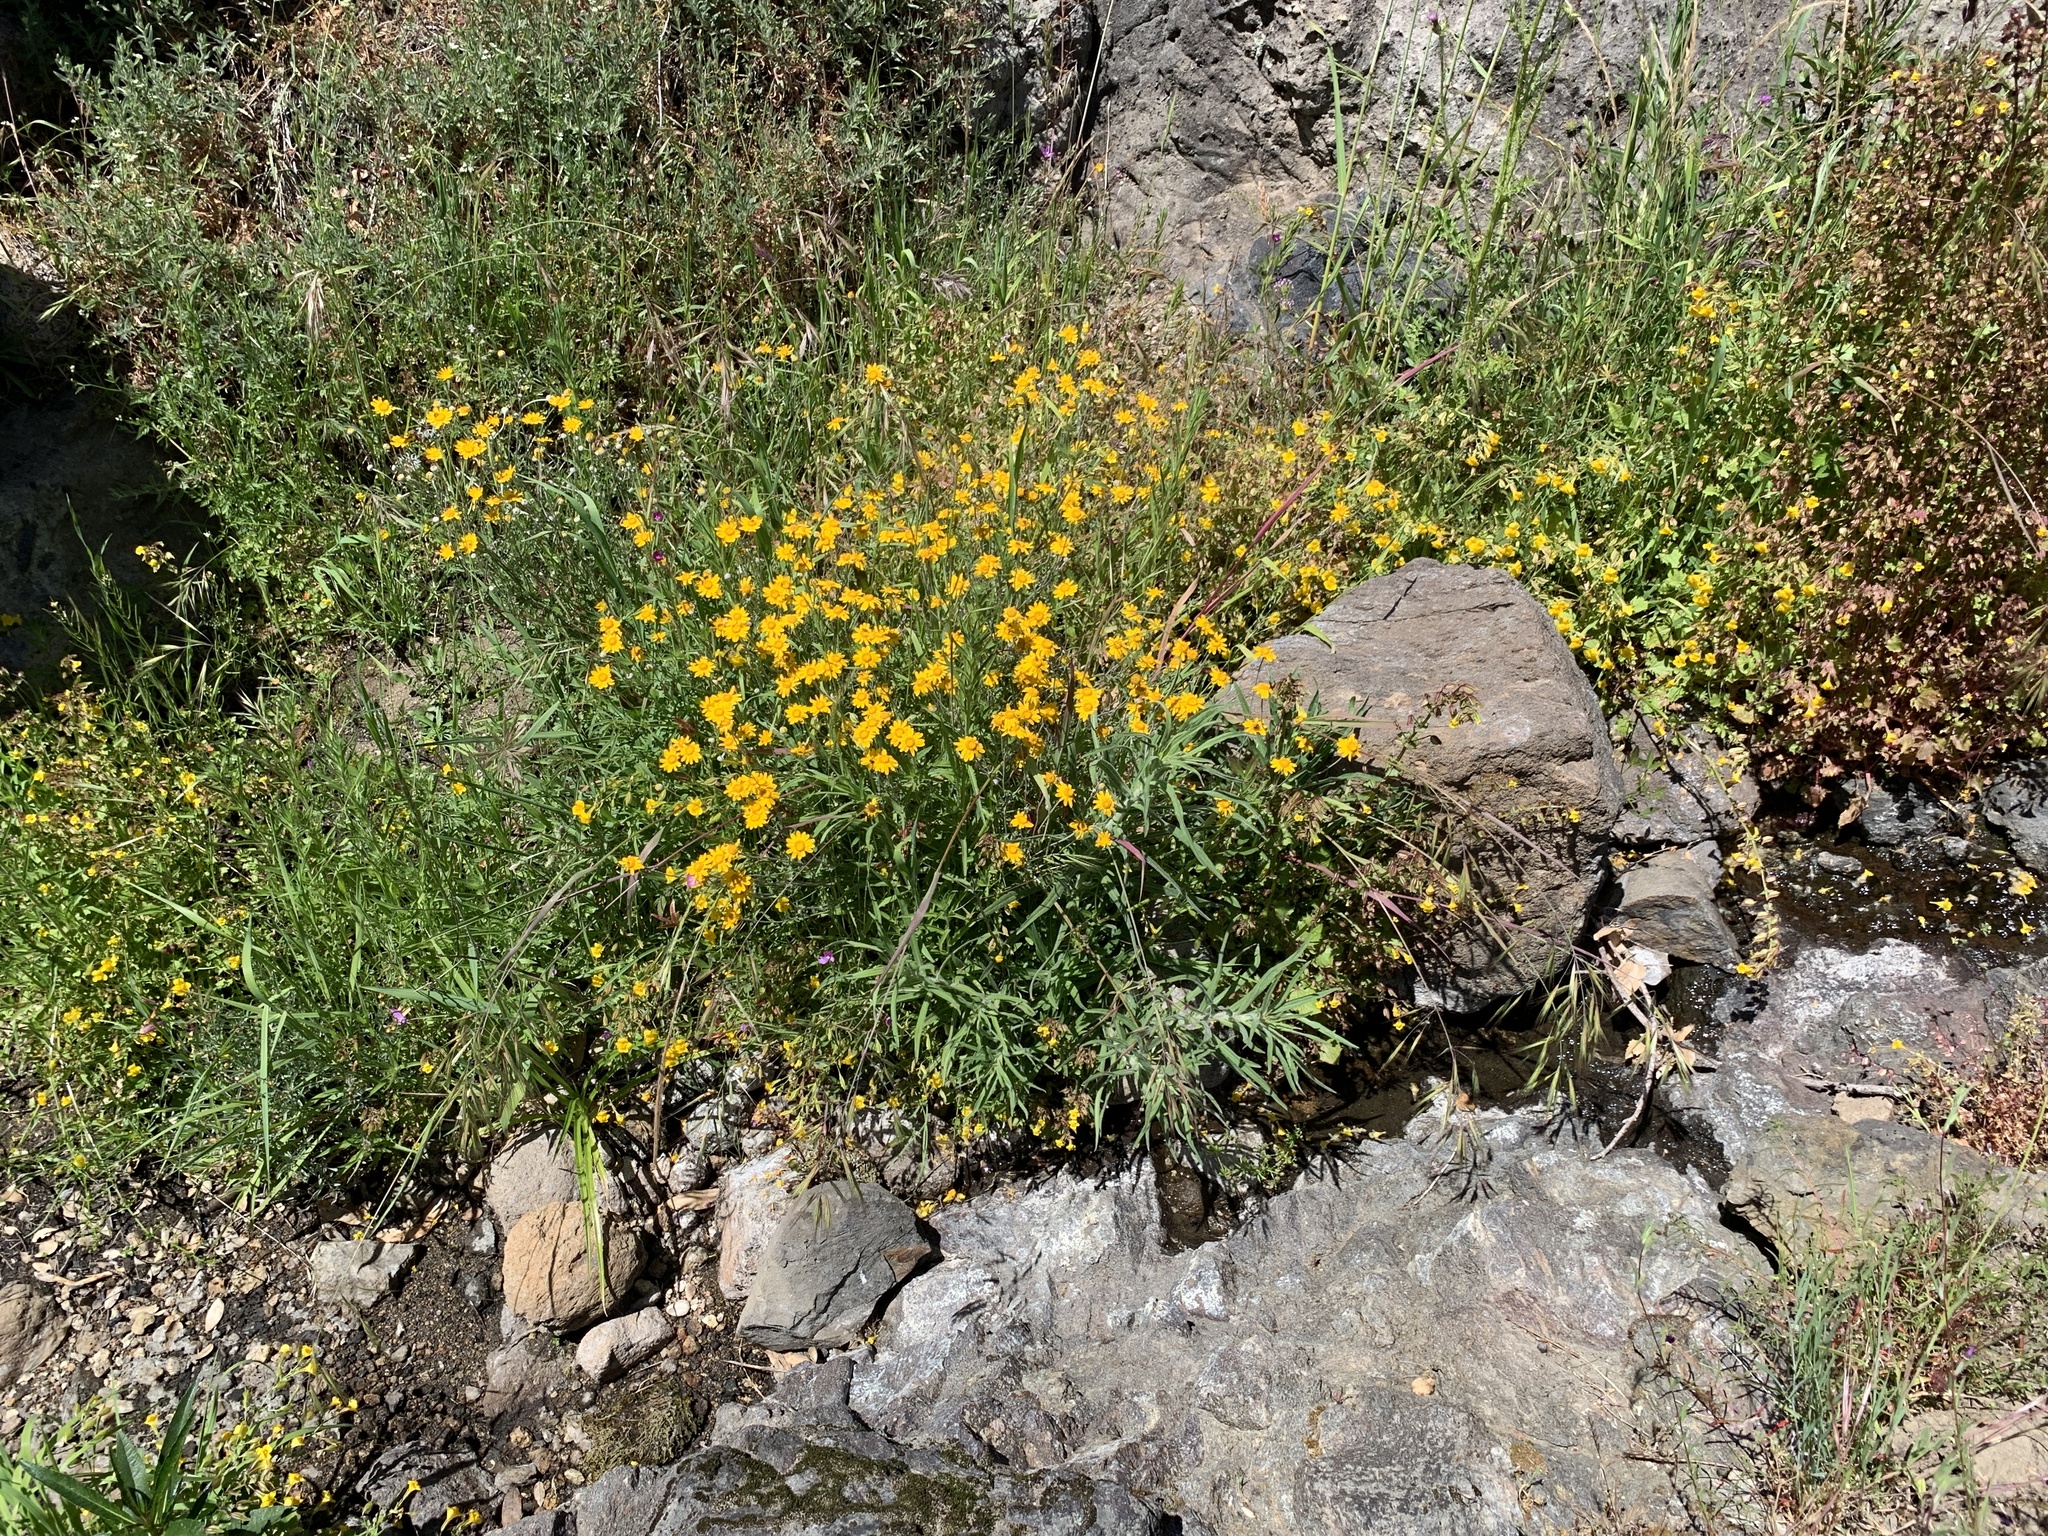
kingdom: Plantae
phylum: Tracheophyta
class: Magnoliopsida
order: Asterales
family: Asteraceae
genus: Eriophyllum
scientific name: Eriophyllum lanatum
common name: Common woolly-sunflower
